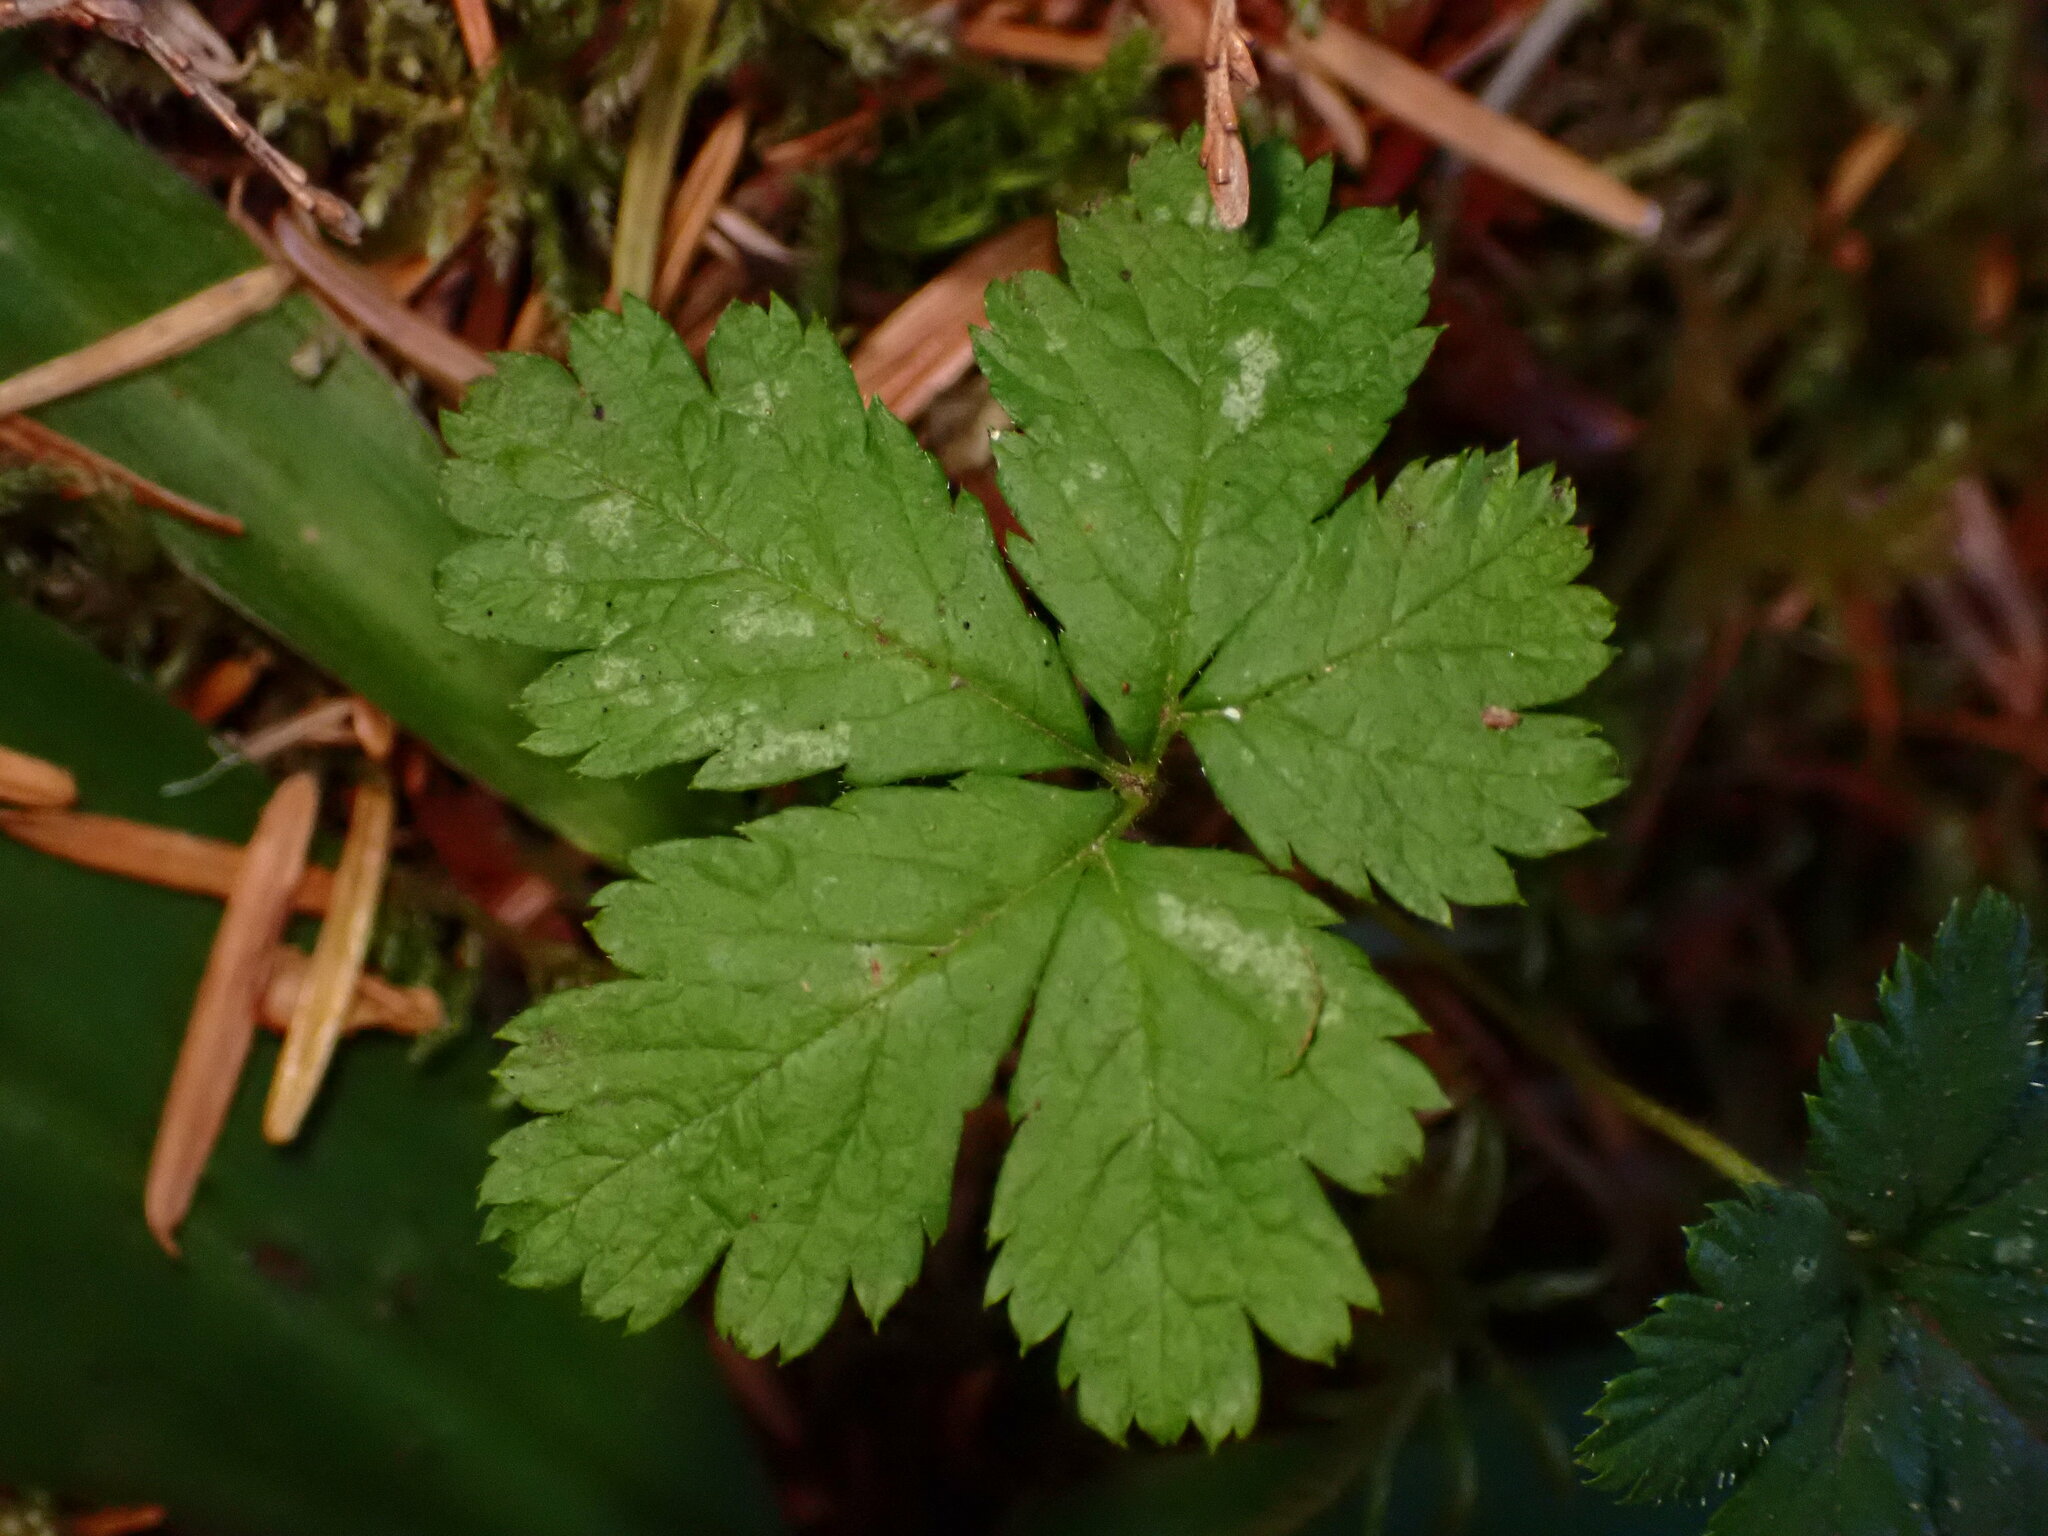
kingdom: Plantae
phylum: Tracheophyta
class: Magnoliopsida
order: Rosales
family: Rosaceae
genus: Rubus
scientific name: Rubus pedatus
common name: Creeping raspberry
